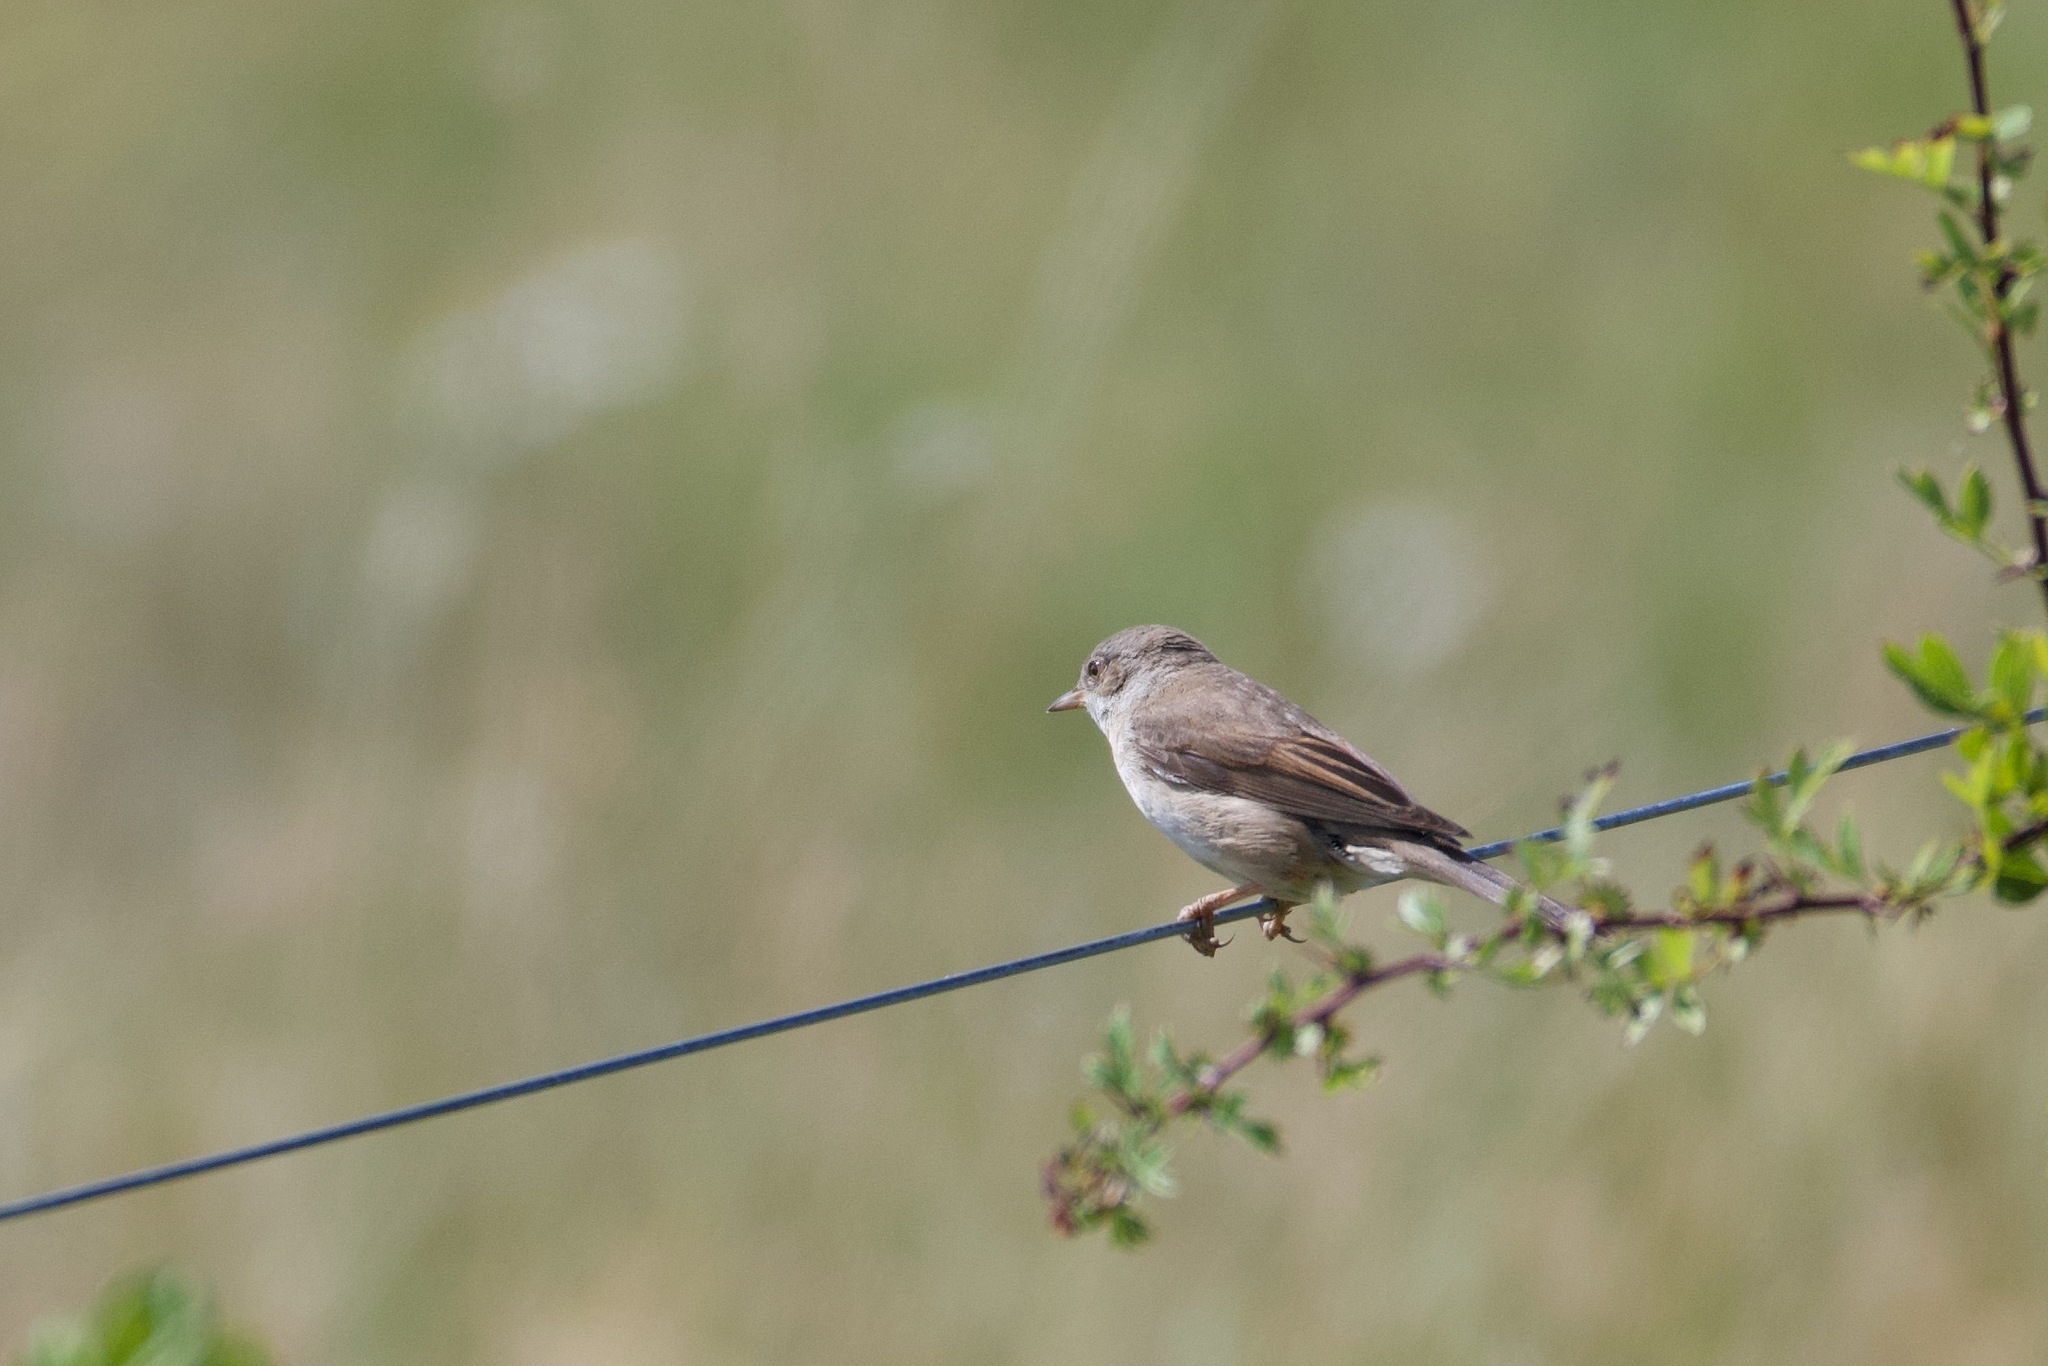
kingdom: Animalia
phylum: Chordata
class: Aves
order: Passeriformes
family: Sylviidae
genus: Sylvia
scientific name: Sylvia communis
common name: Common whitethroat
